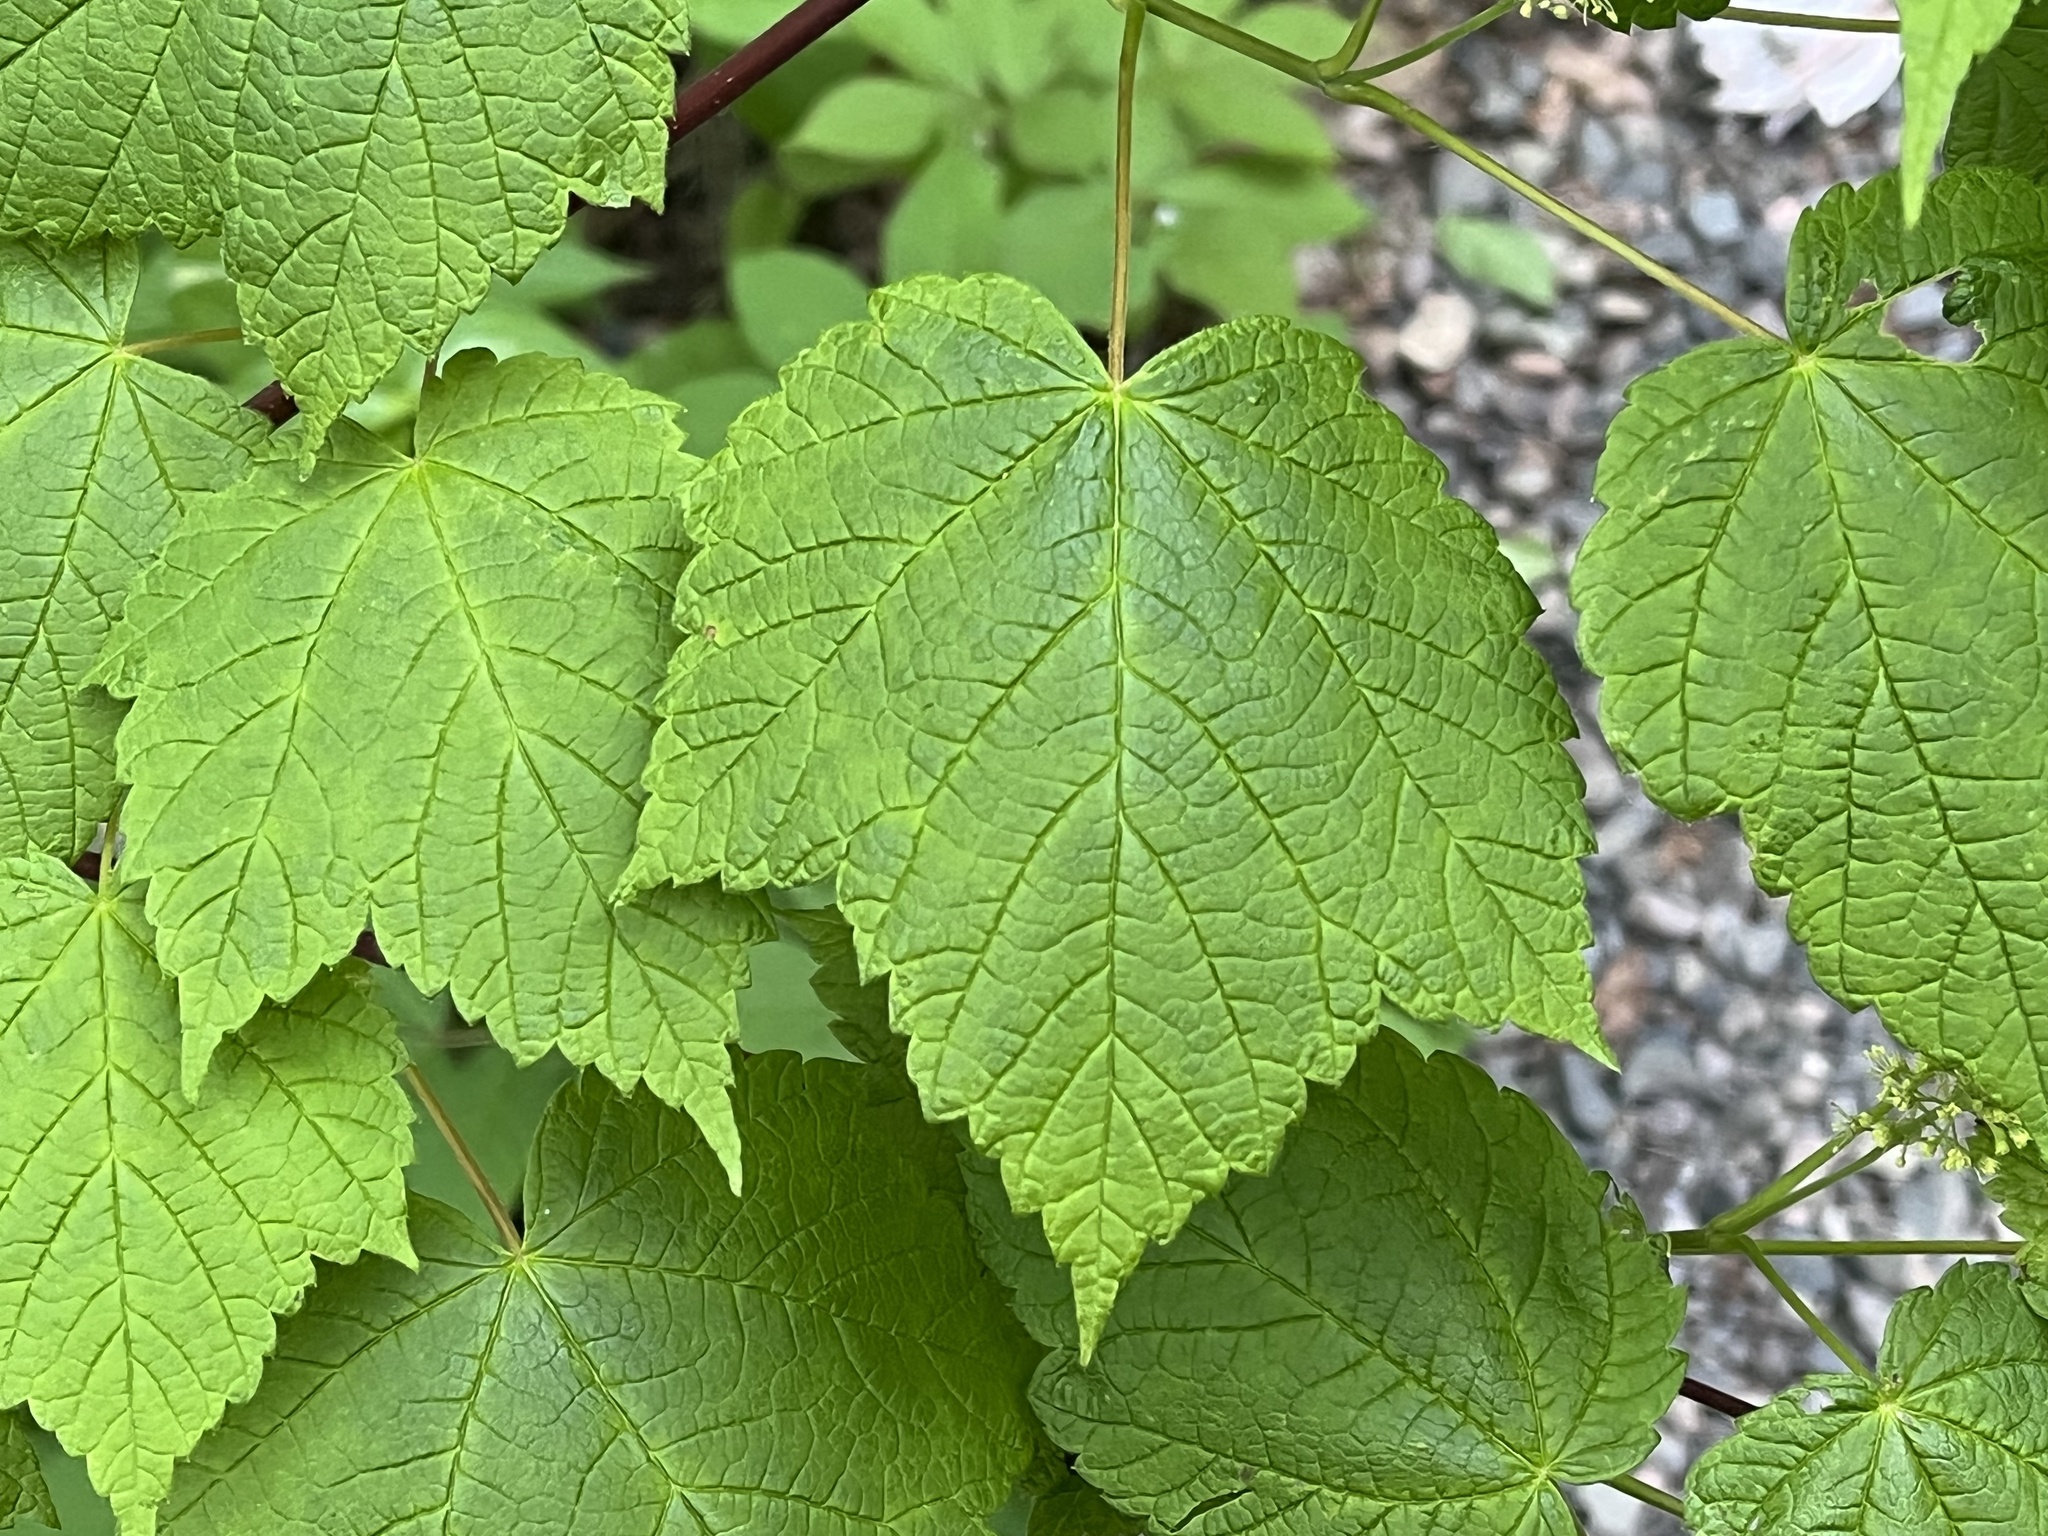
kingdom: Plantae
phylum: Tracheophyta
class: Magnoliopsida
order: Sapindales
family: Sapindaceae
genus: Acer
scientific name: Acer spicatum
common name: Mountain maple
